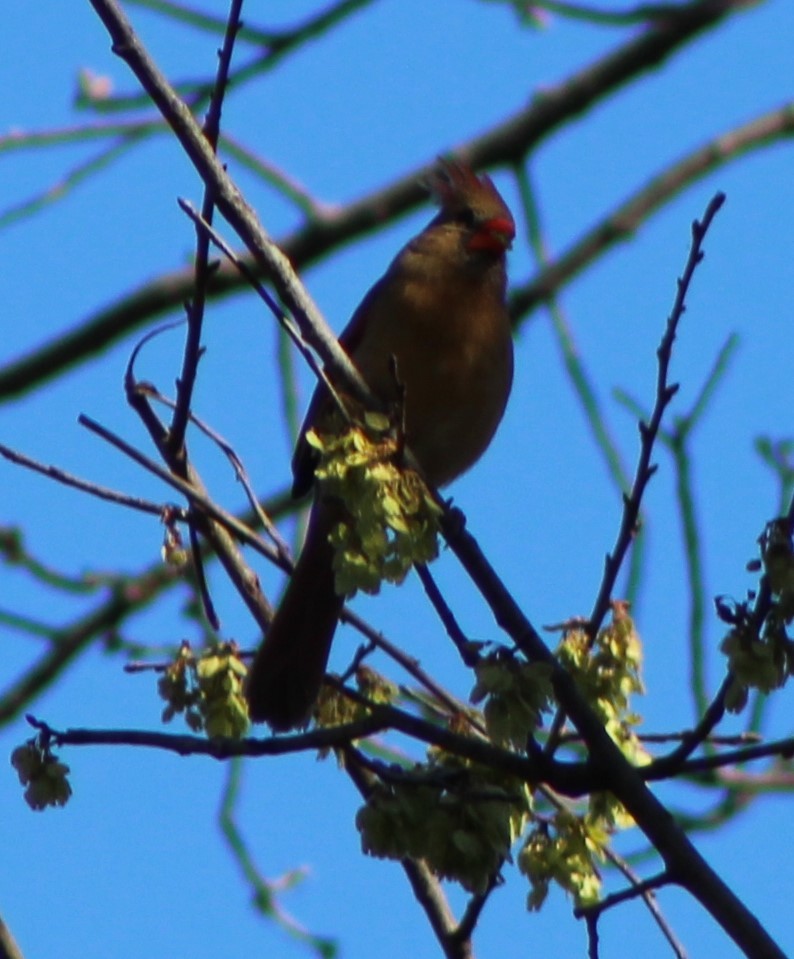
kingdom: Animalia
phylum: Chordata
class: Aves
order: Passeriformes
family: Cardinalidae
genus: Cardinalis
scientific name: Cardinalis cardinalis
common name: Northern cardinal
